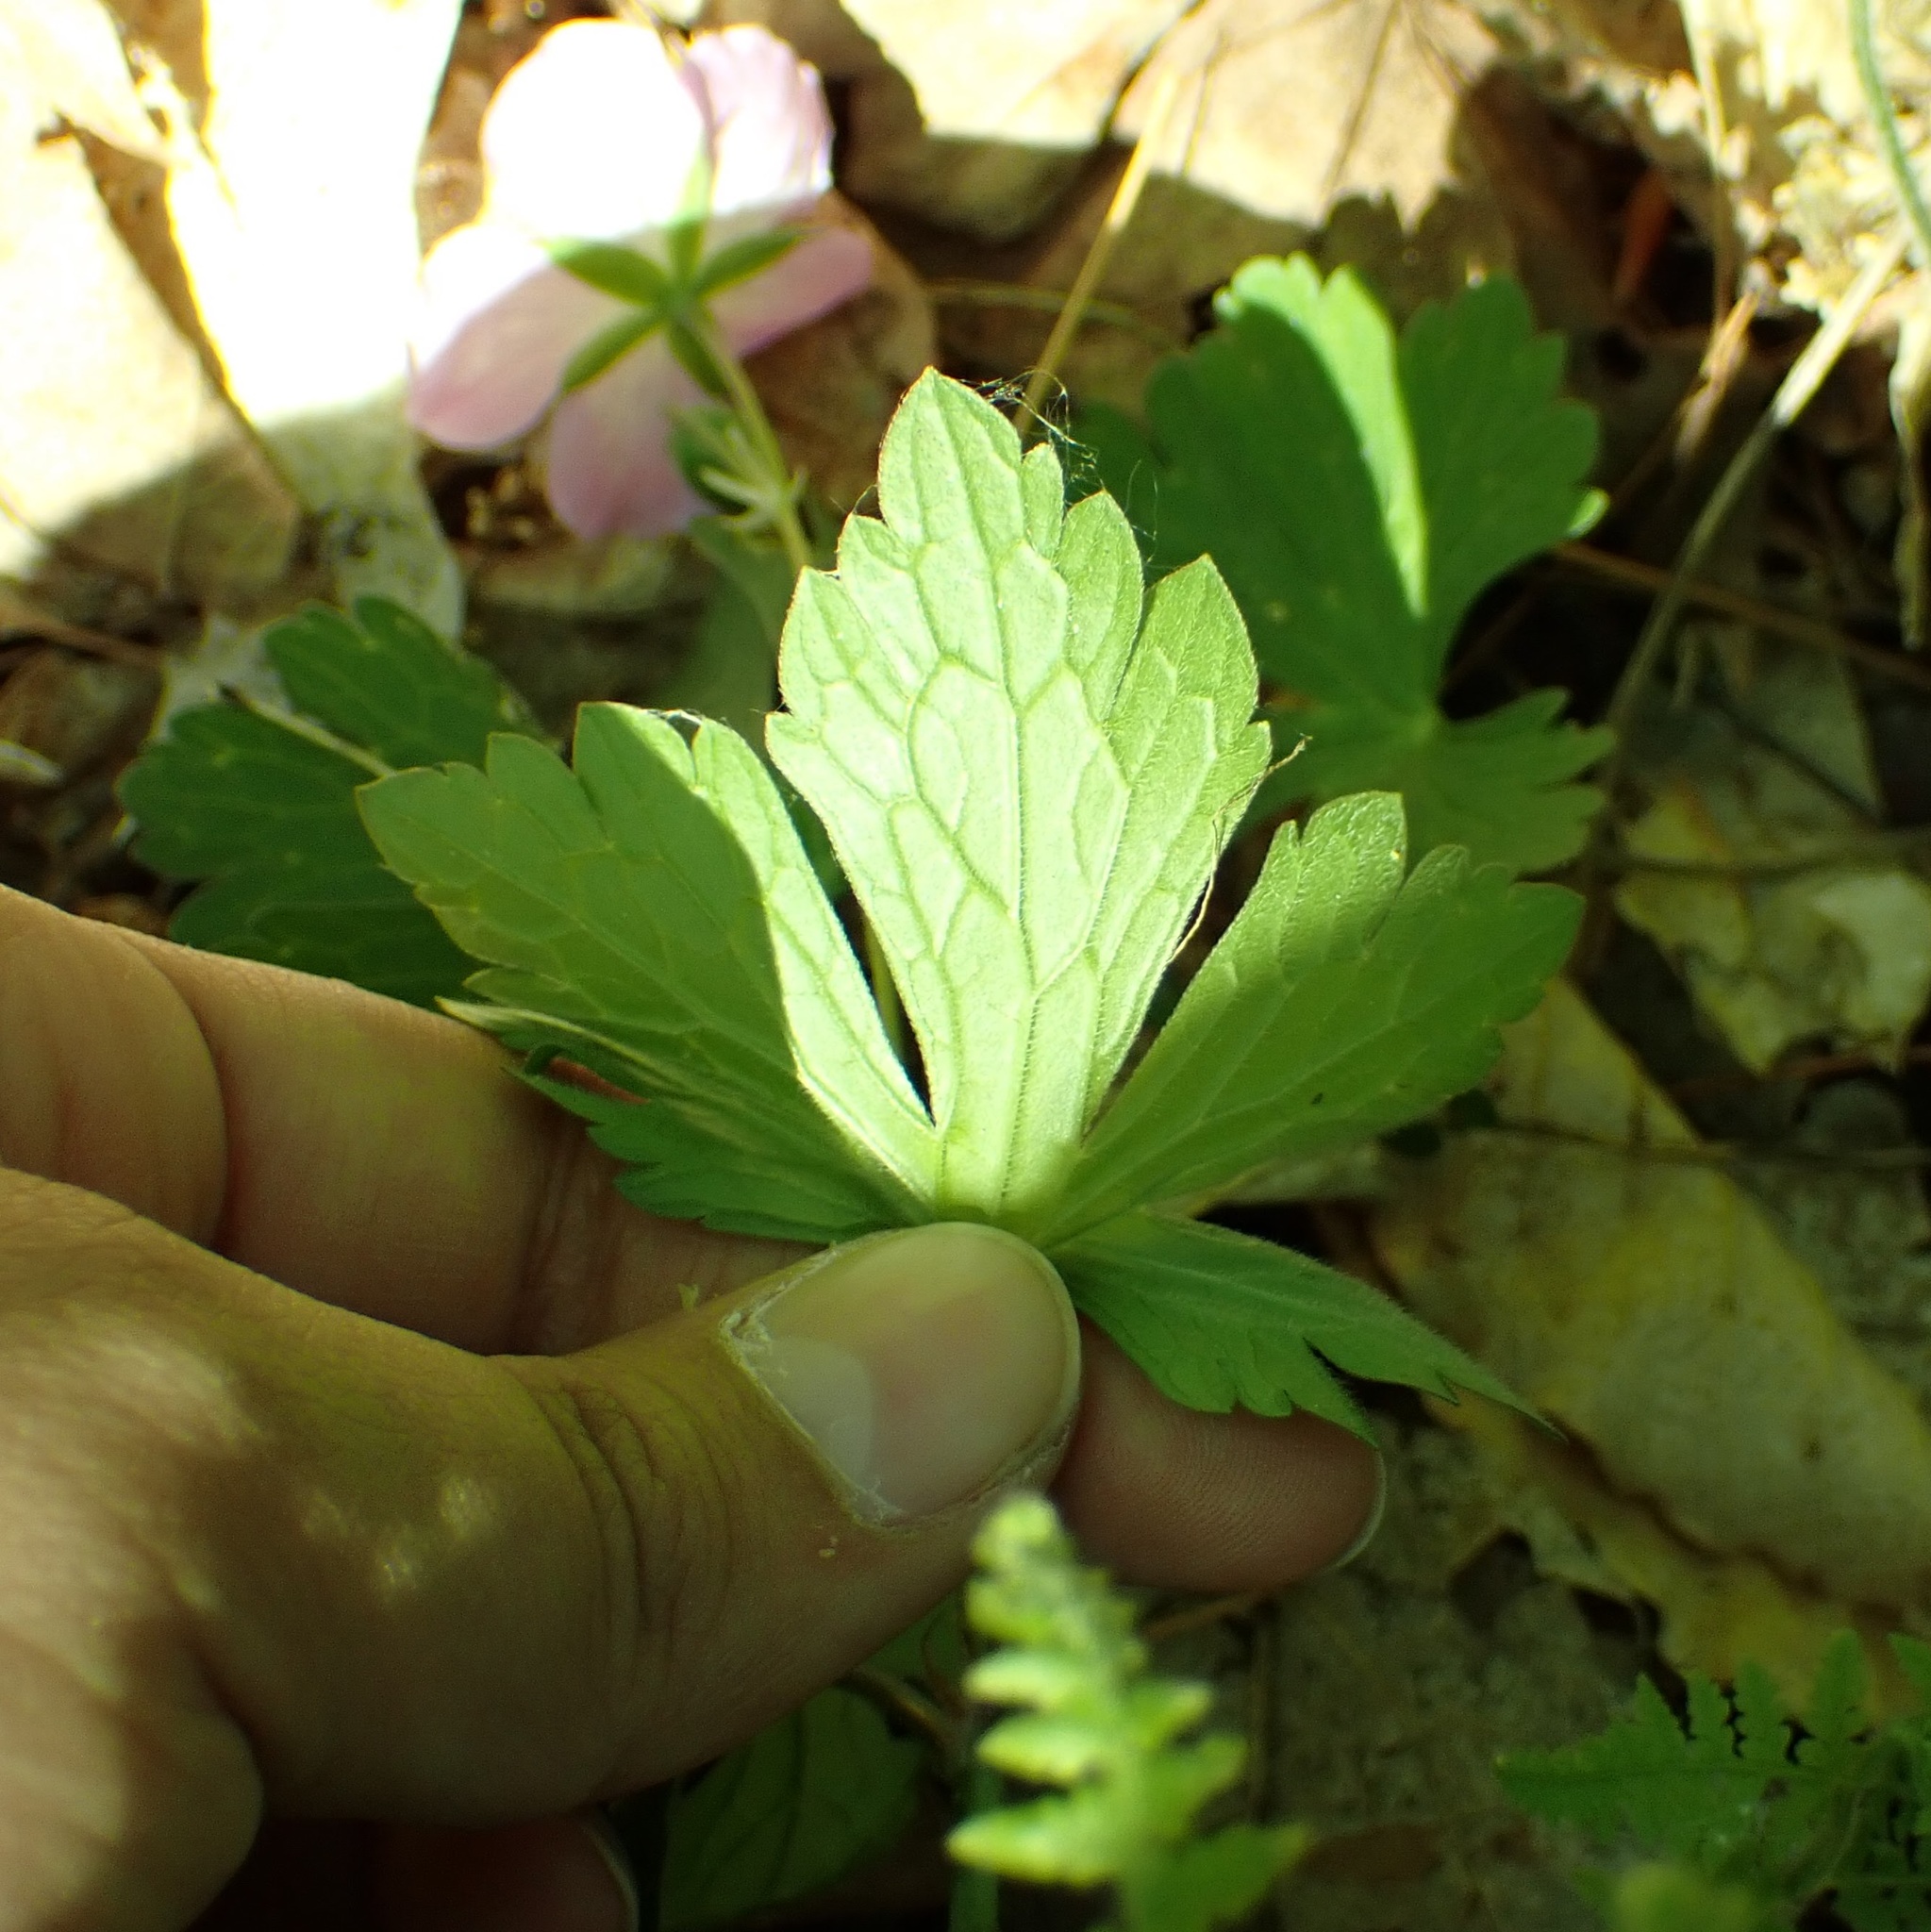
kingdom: Plantae
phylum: Tracheophyta
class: Magnoliopsida
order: Geraniales
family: Geraniaceae
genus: Geranium
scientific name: Geranium maculatum
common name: Spotted geranium
